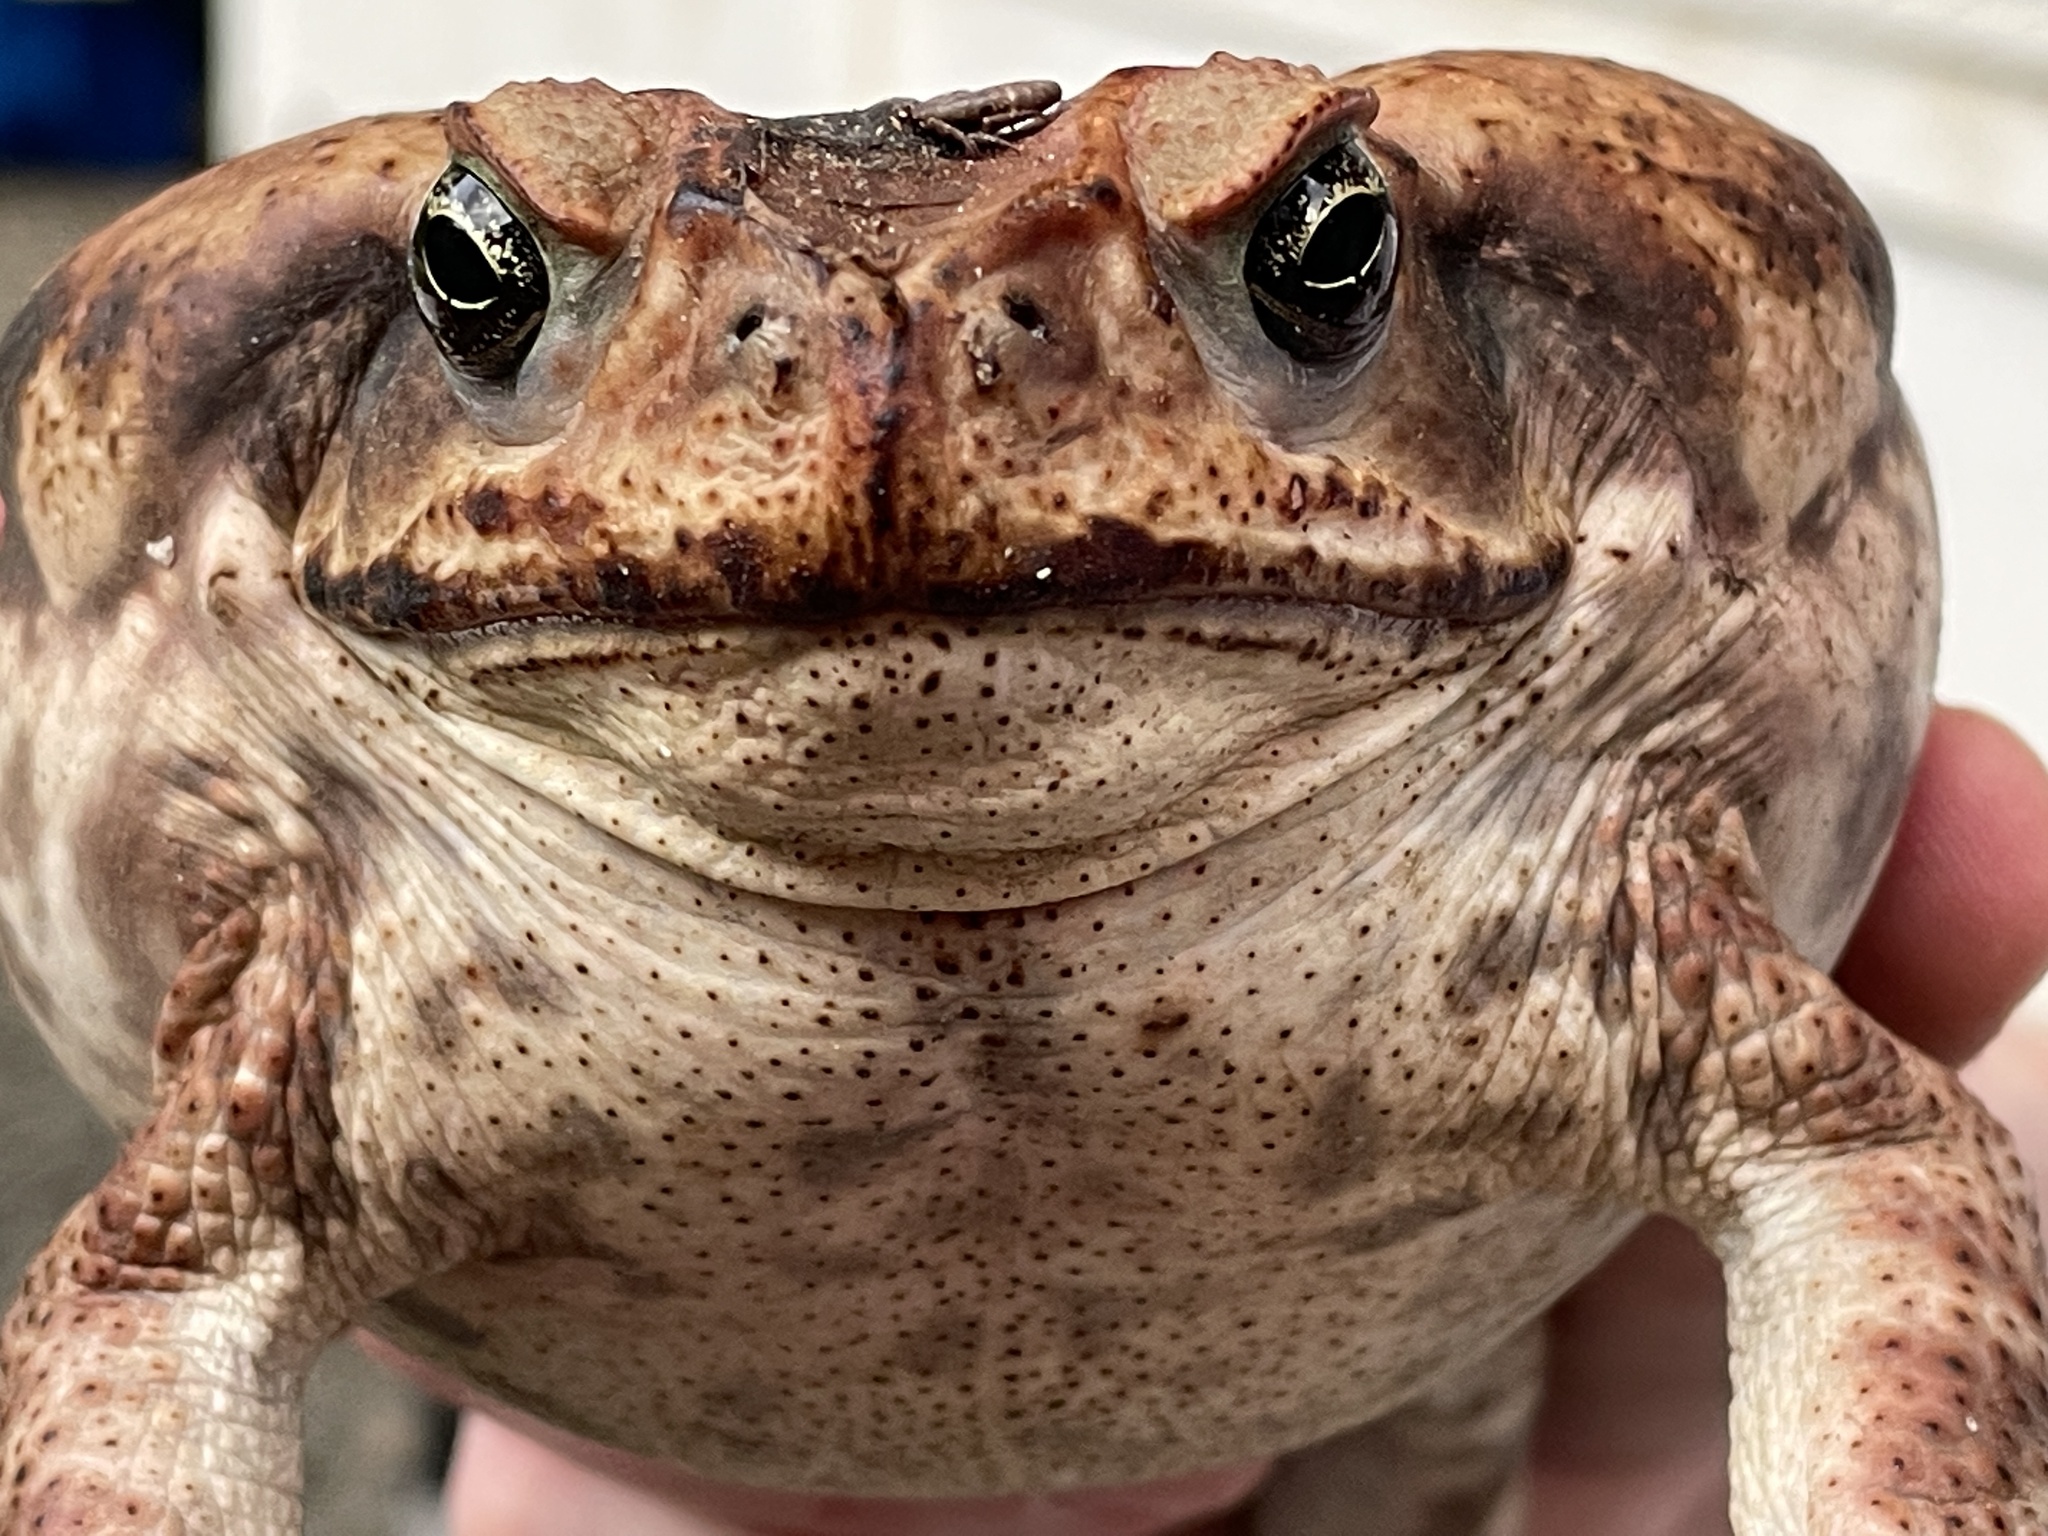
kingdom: Animalia
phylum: Chordata
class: Amphibia
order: Anura
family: Bufonidae
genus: Rhinella
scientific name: Rhinella horribilis
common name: Mesoamerican cane toad
